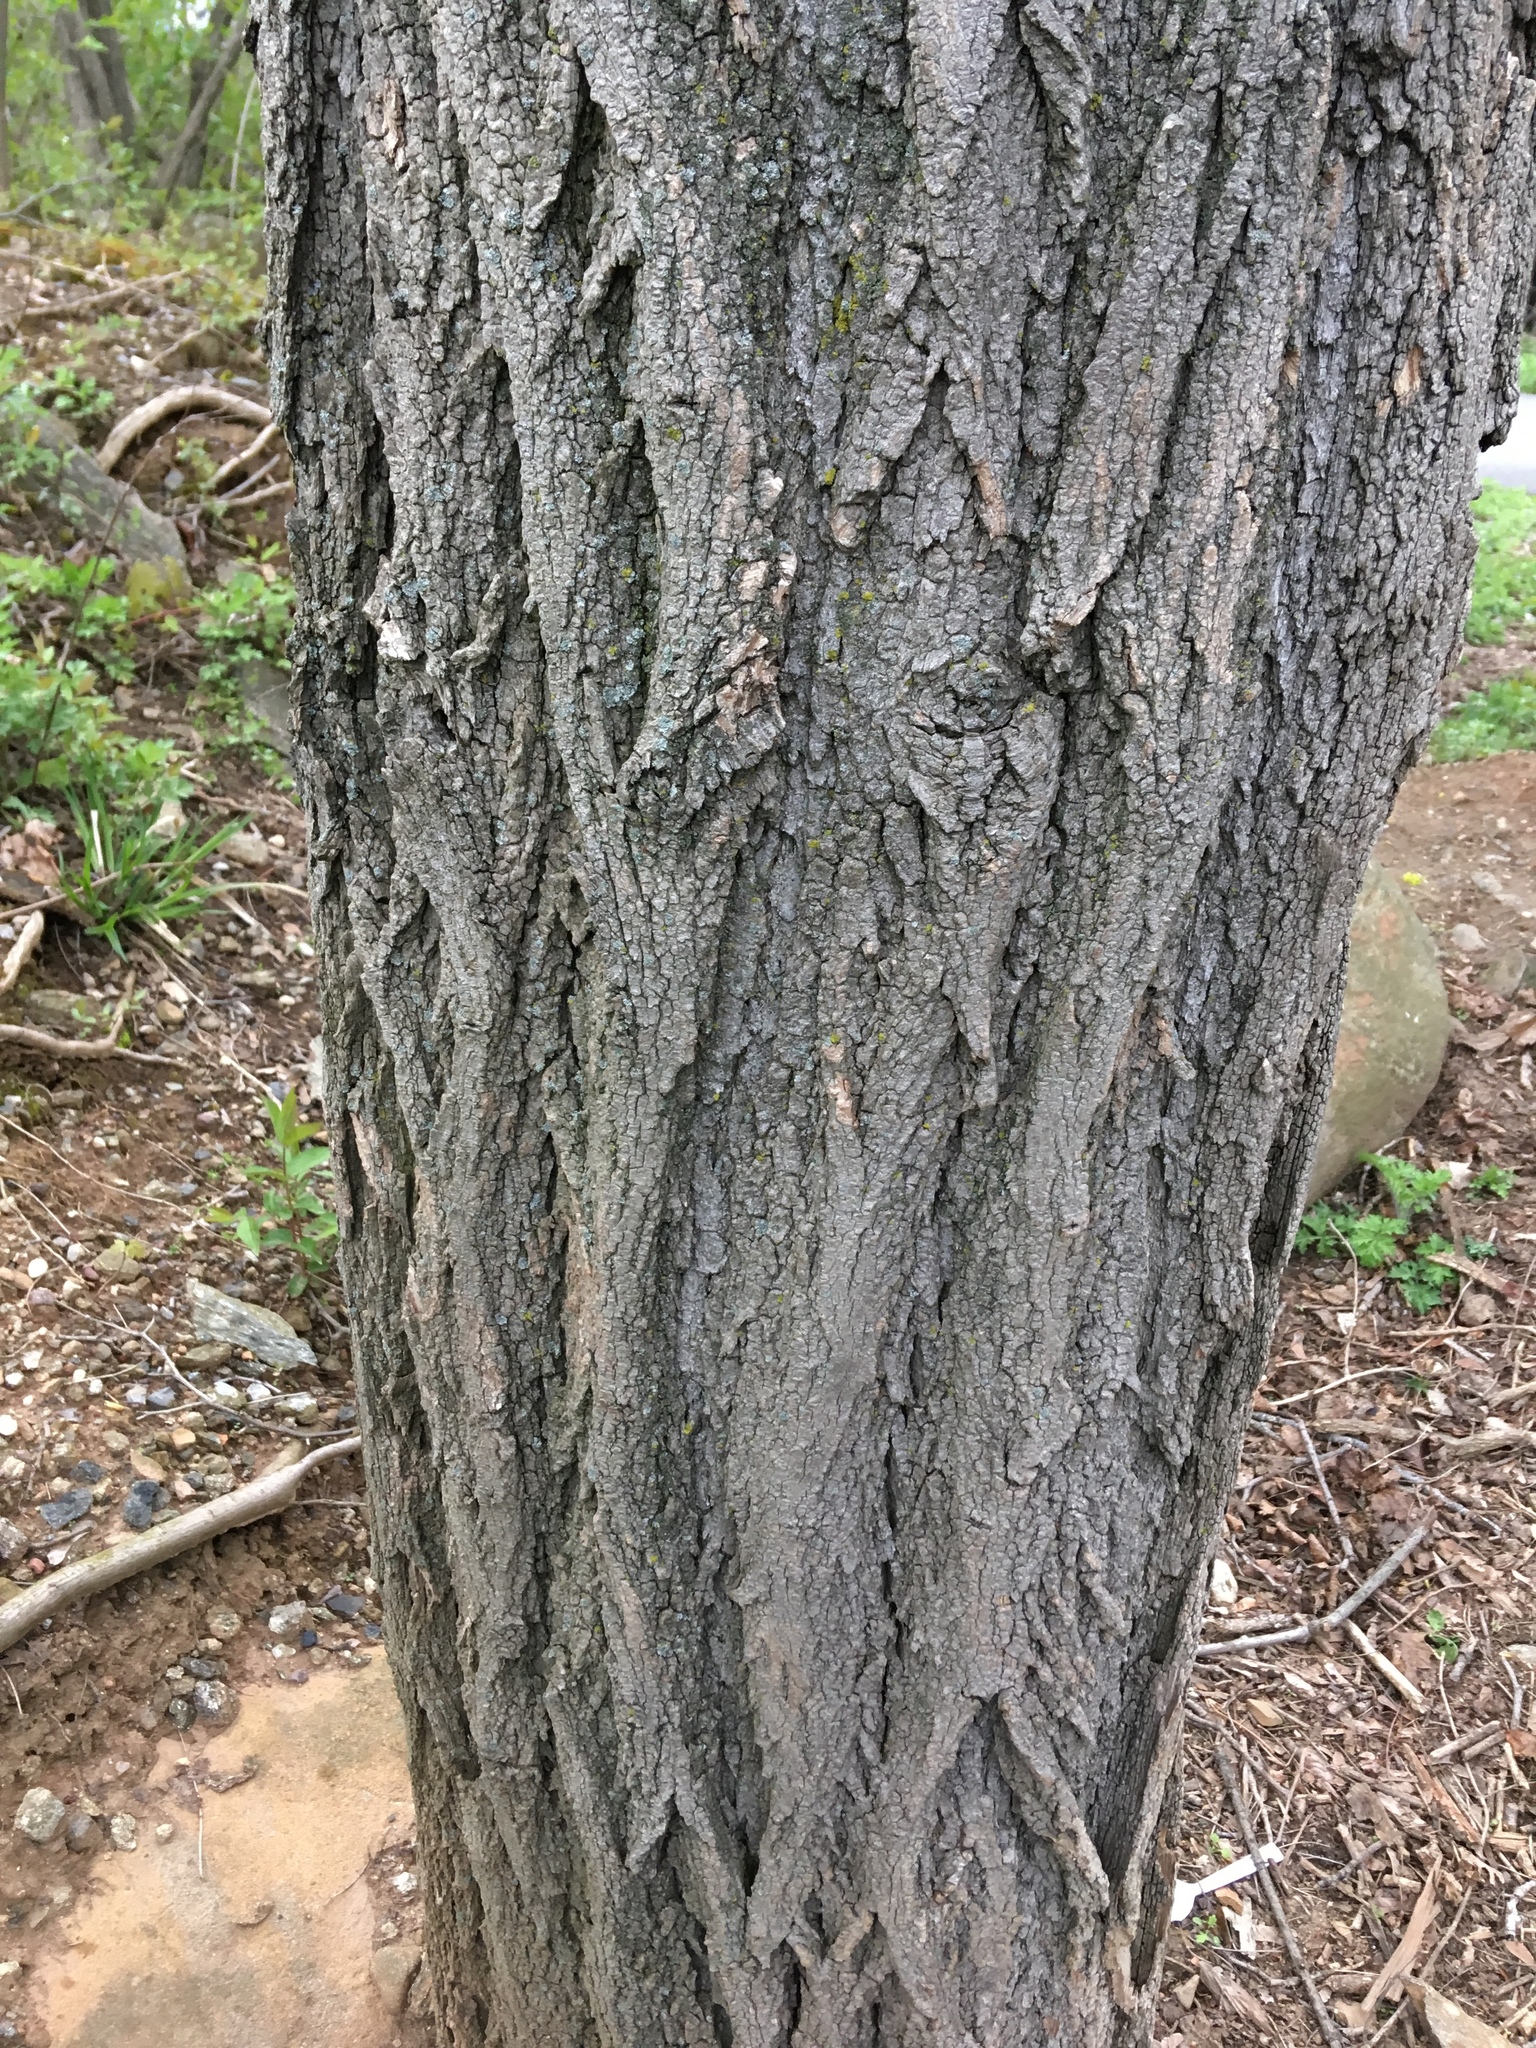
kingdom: Plantae
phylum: Tracheophyta
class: Magnoliopsida
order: Fabales
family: Fabaceae
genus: Robinia
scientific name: Robinia pseudoacacia
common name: Black locust
